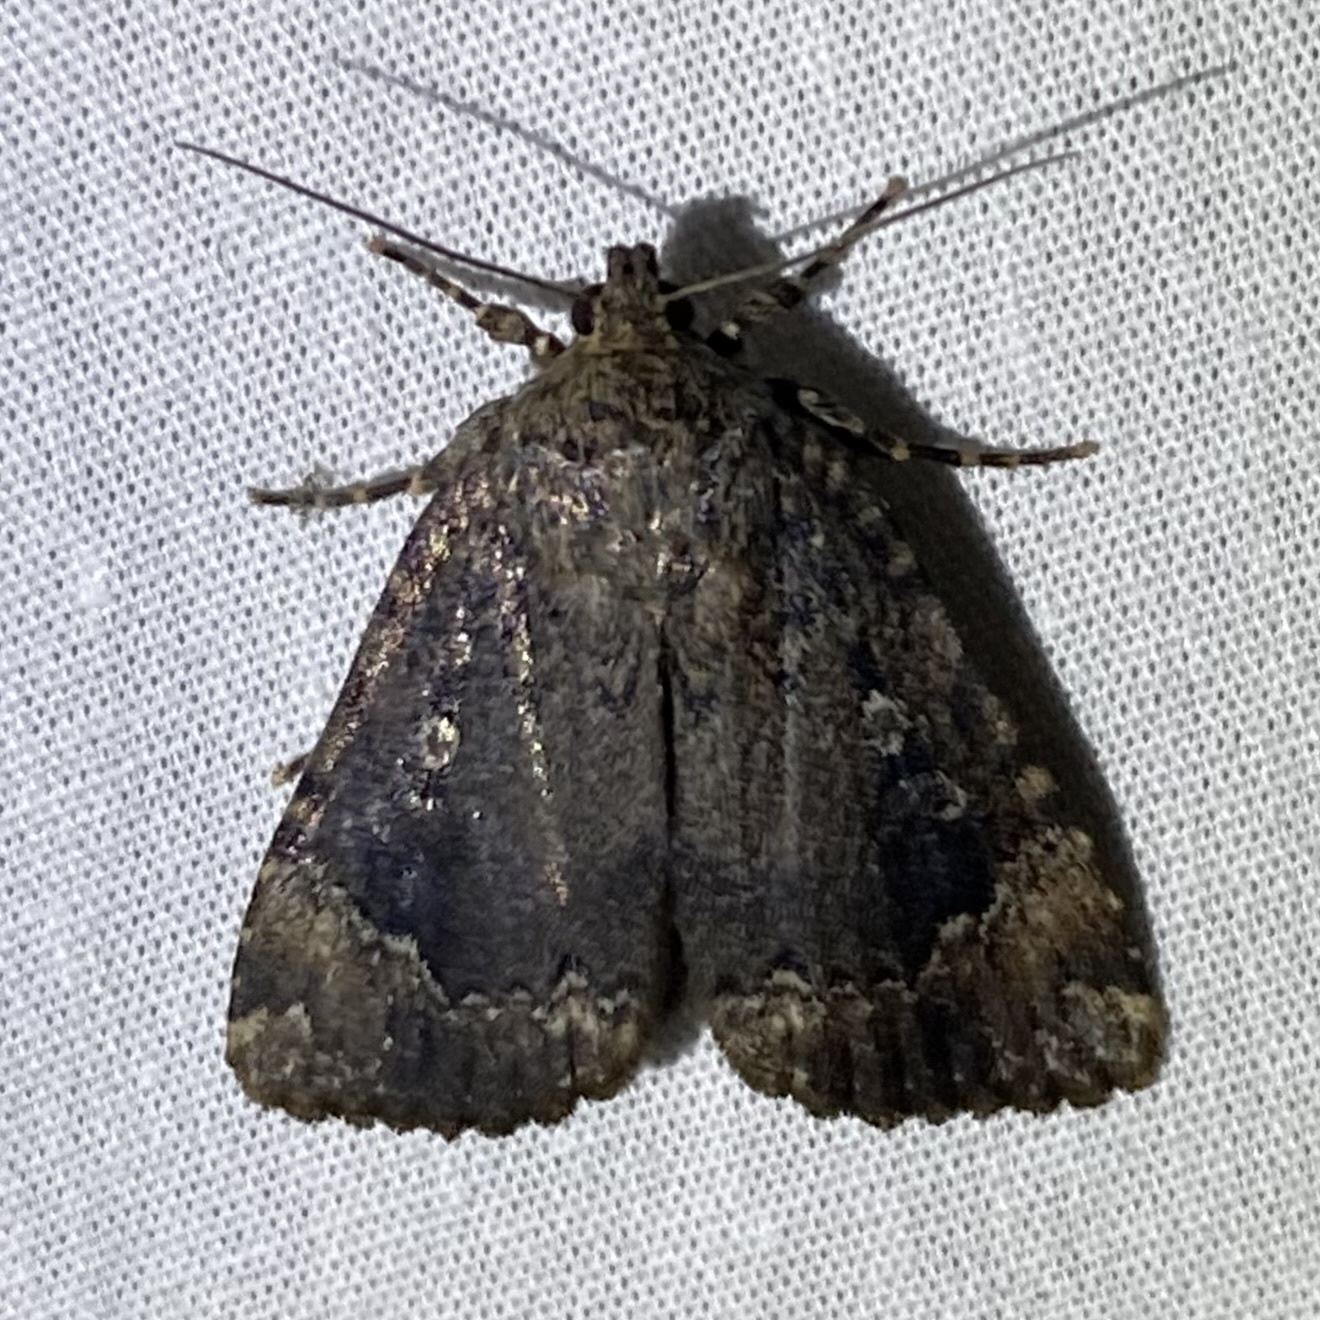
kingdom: Animalia
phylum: Arthropoda
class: Insecta
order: Lepidoptera
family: Noctuidae
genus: Amphipyra
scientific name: Amphipyra pyramidoides
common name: American copper underwing
